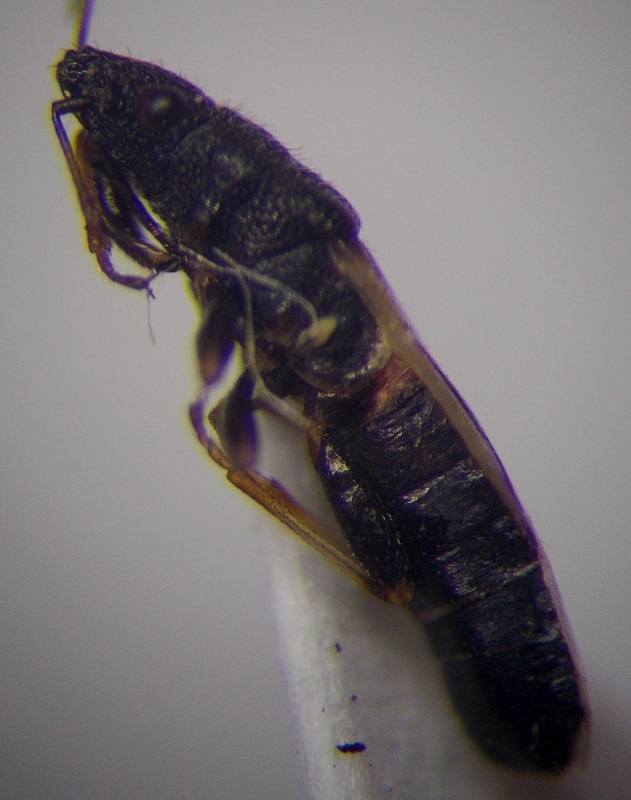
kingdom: Animalia
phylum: Arthropoda
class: Insecta
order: Hemiptera
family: Oxycarenidae
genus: Metopoplax
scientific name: Metopoplax origani
